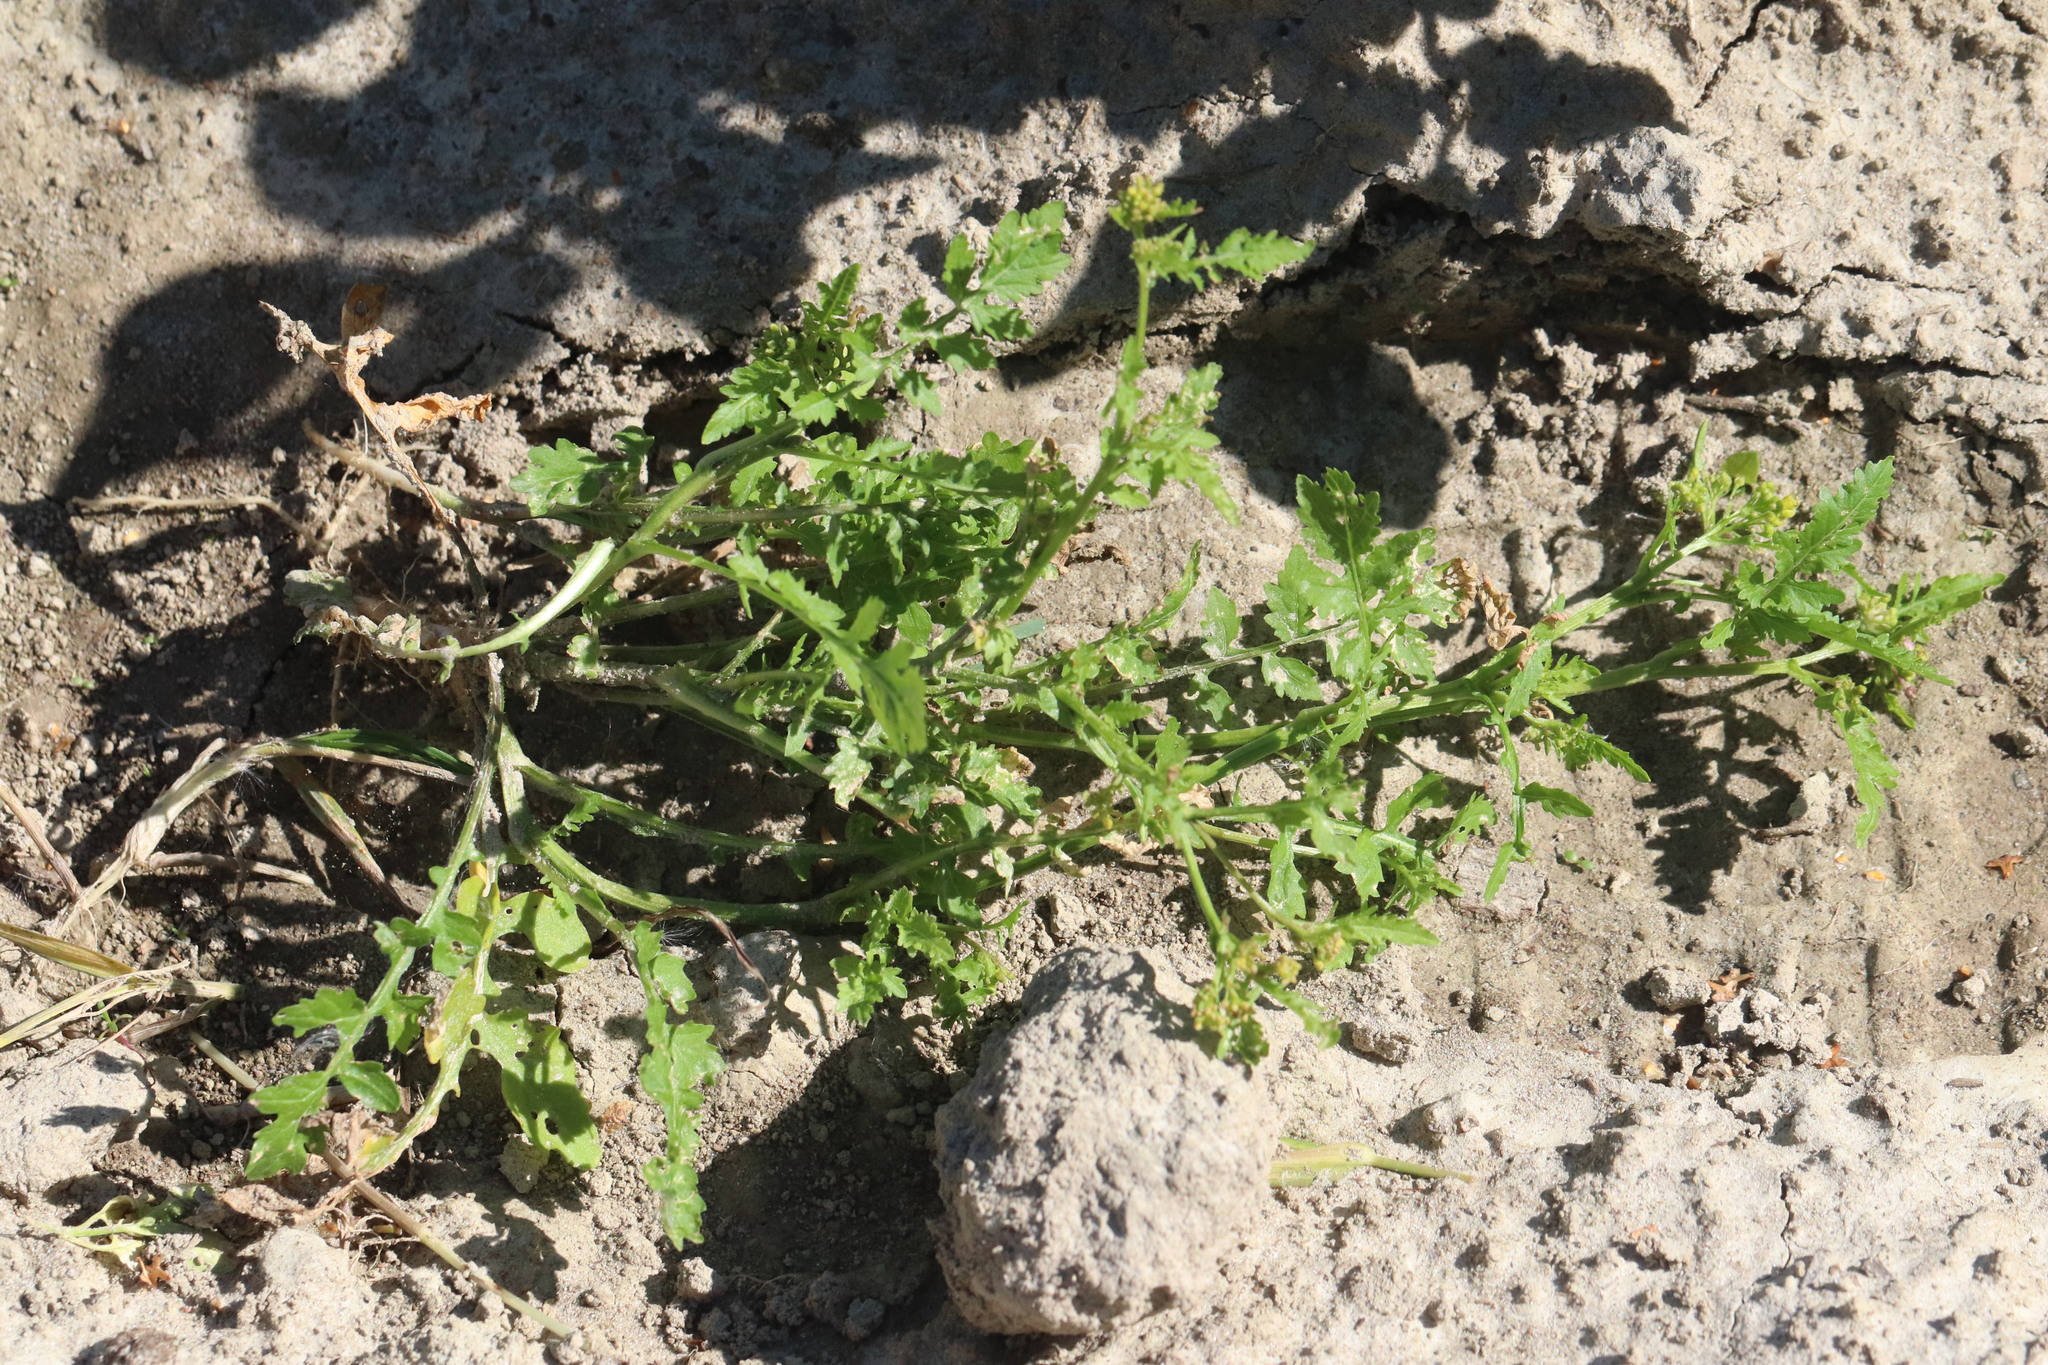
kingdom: Plantae
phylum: Tracheophyta
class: Magnoliopsida
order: Brassicales
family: Brassicaceae
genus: Rorippa
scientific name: Rorippa palustris
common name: Marsh yellow-cress
